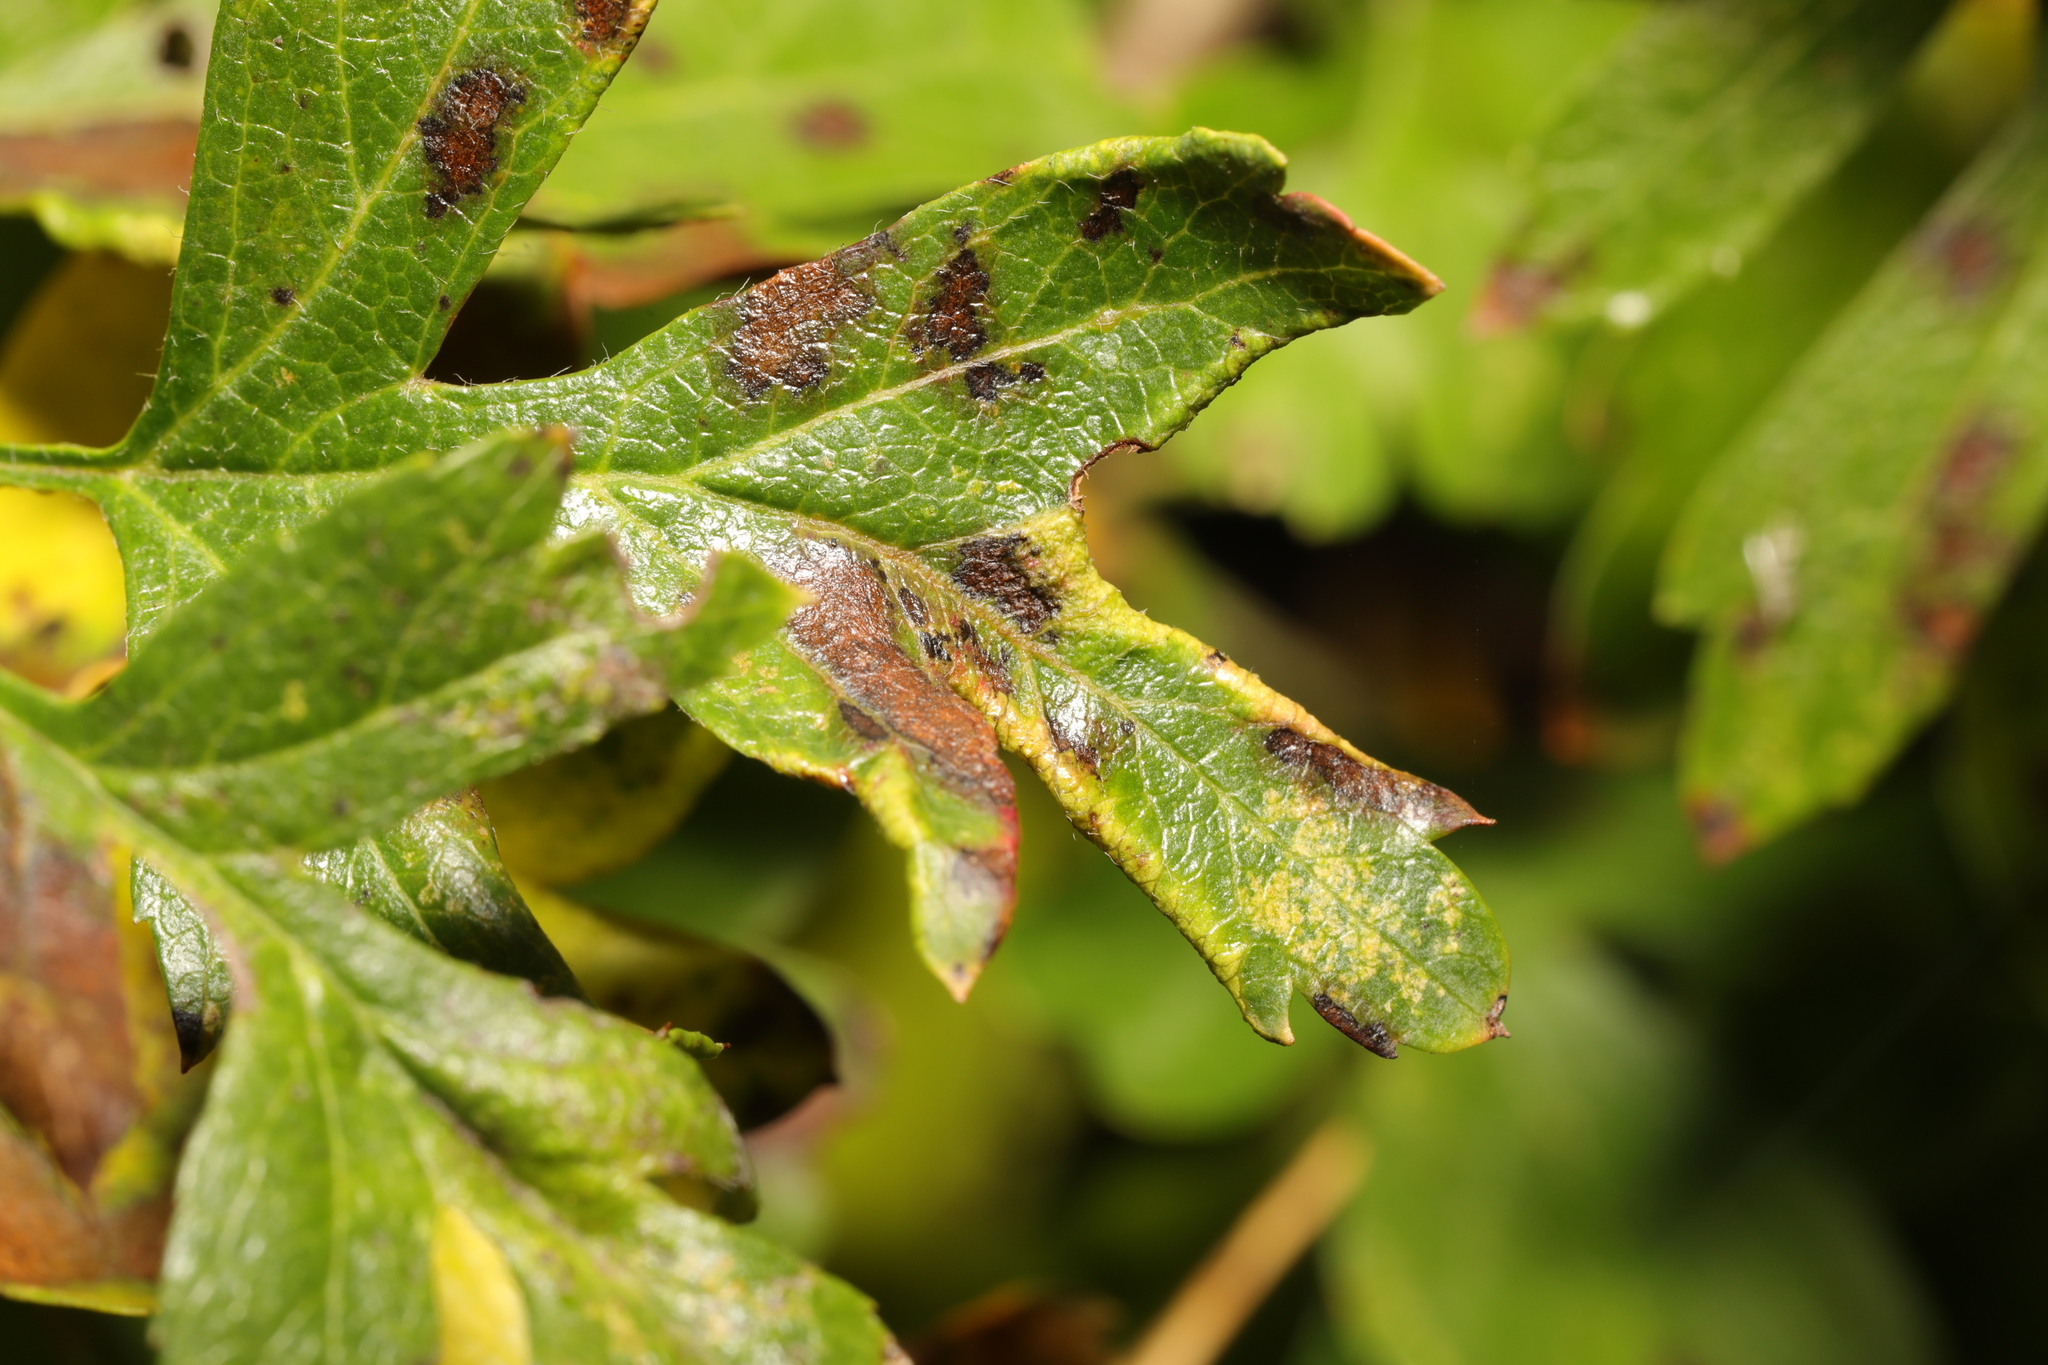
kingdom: Animalia
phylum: Arthropoda
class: Arachnida
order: Trombidiformes
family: Eriophyidae
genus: Phyllocoptes
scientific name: Phyllocoptes goniothorax
